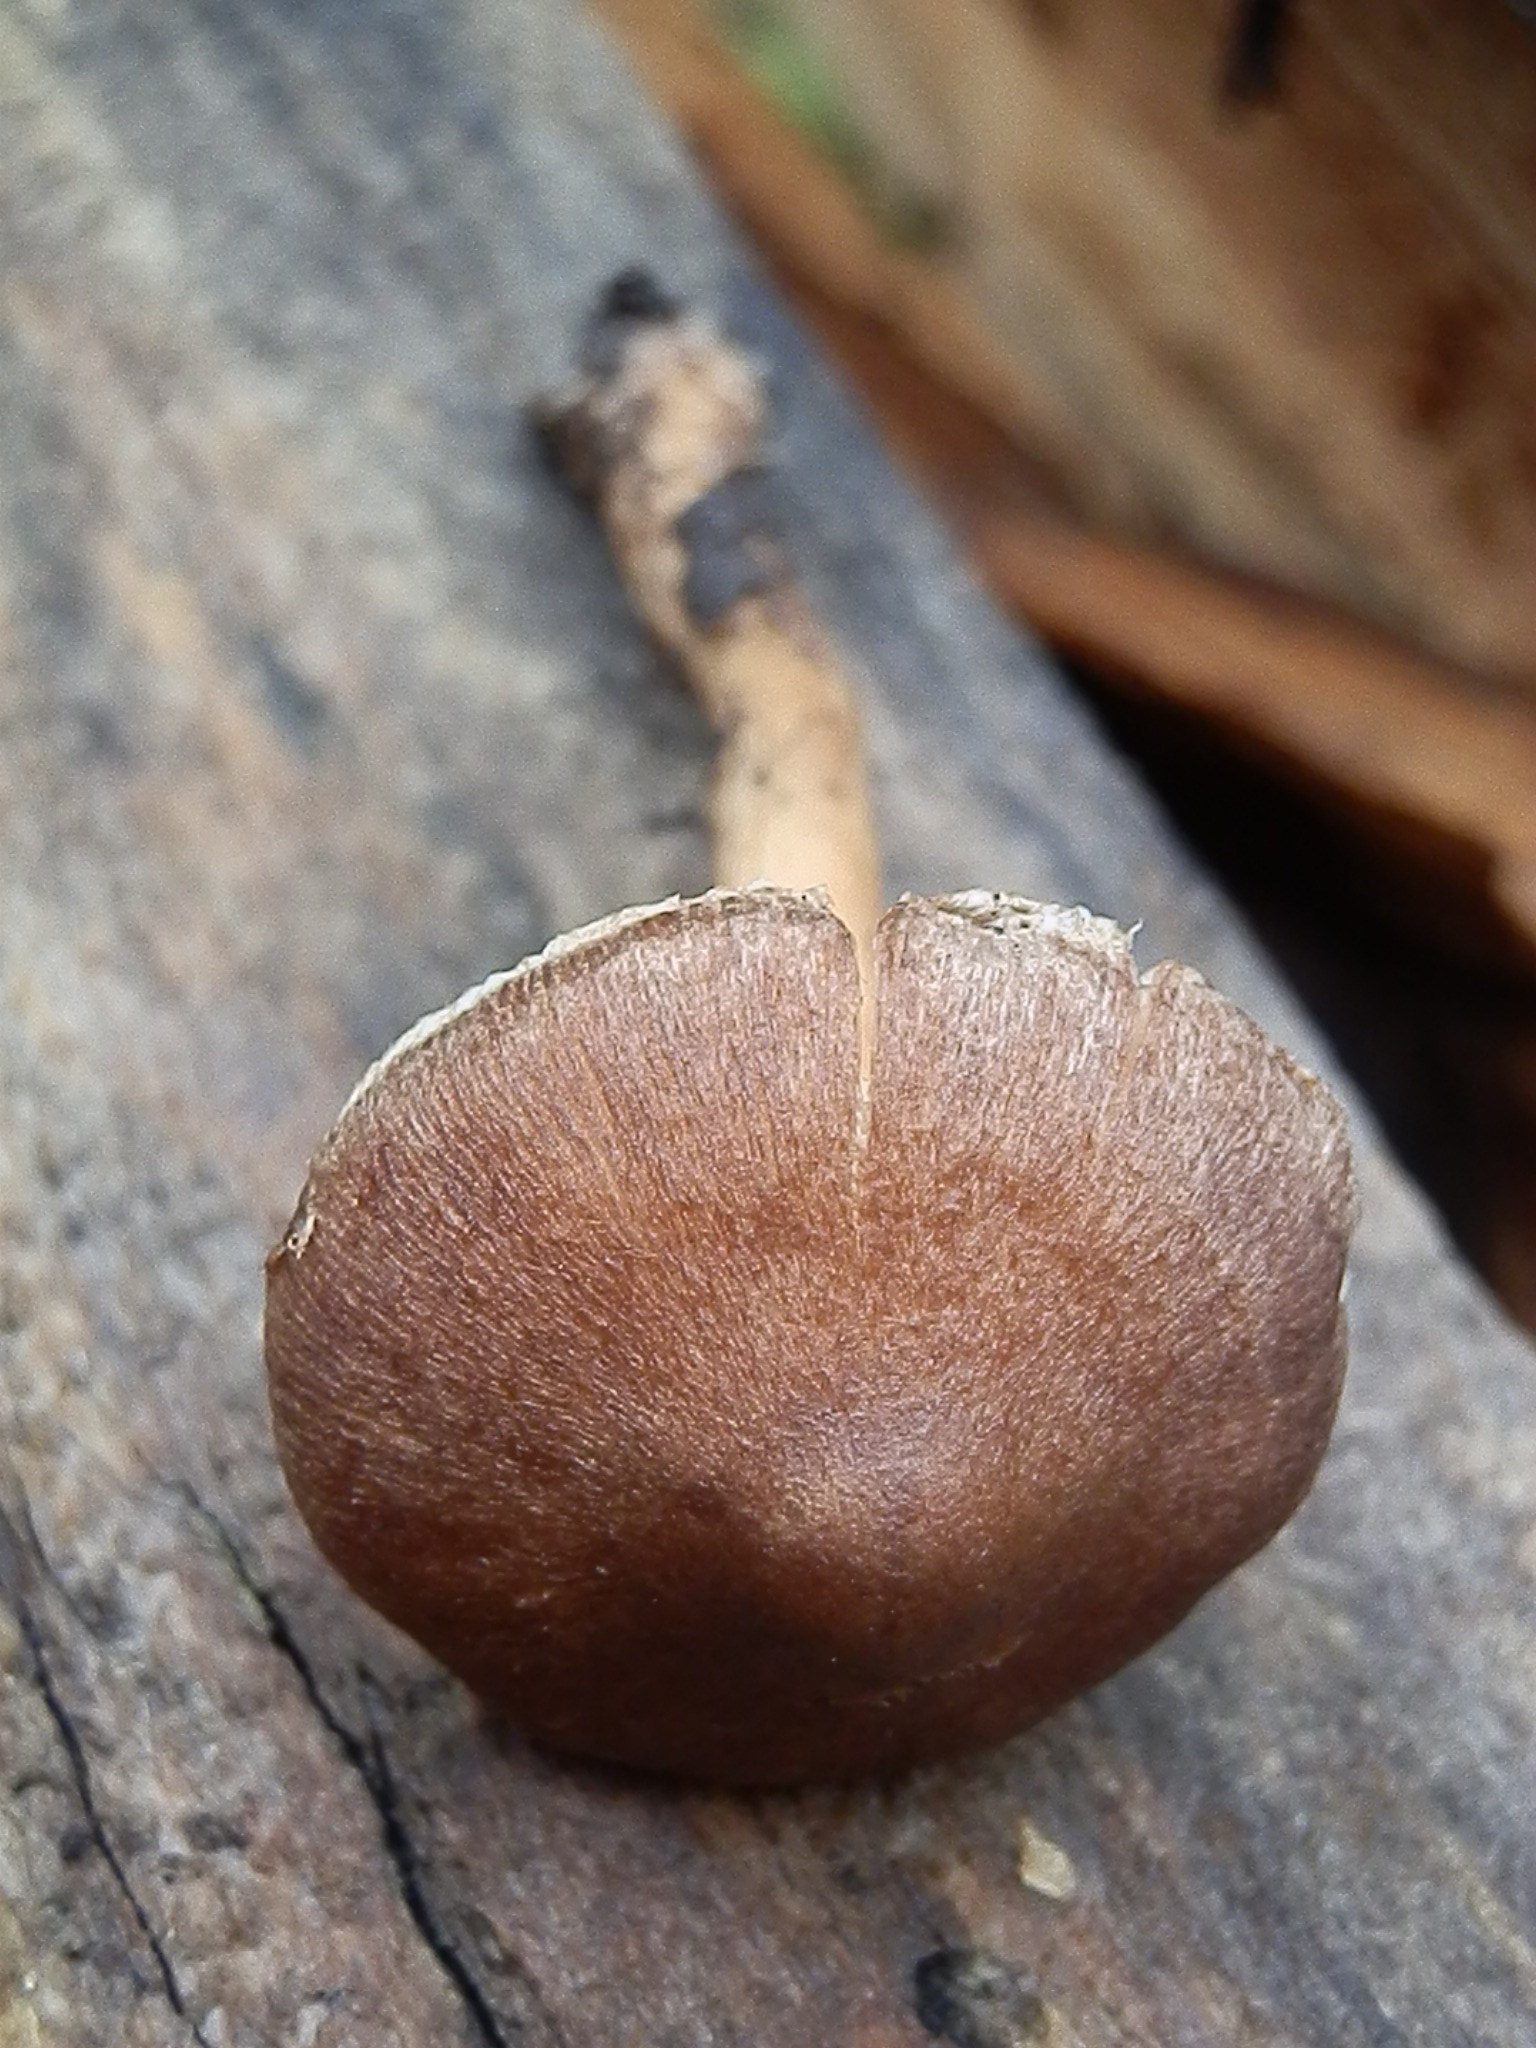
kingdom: Fungi
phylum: Basidiomycota
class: Agaricomycetes
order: Agaricales
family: Inocybaceae
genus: Inocybe
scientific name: Inocybe pseudodestricta
